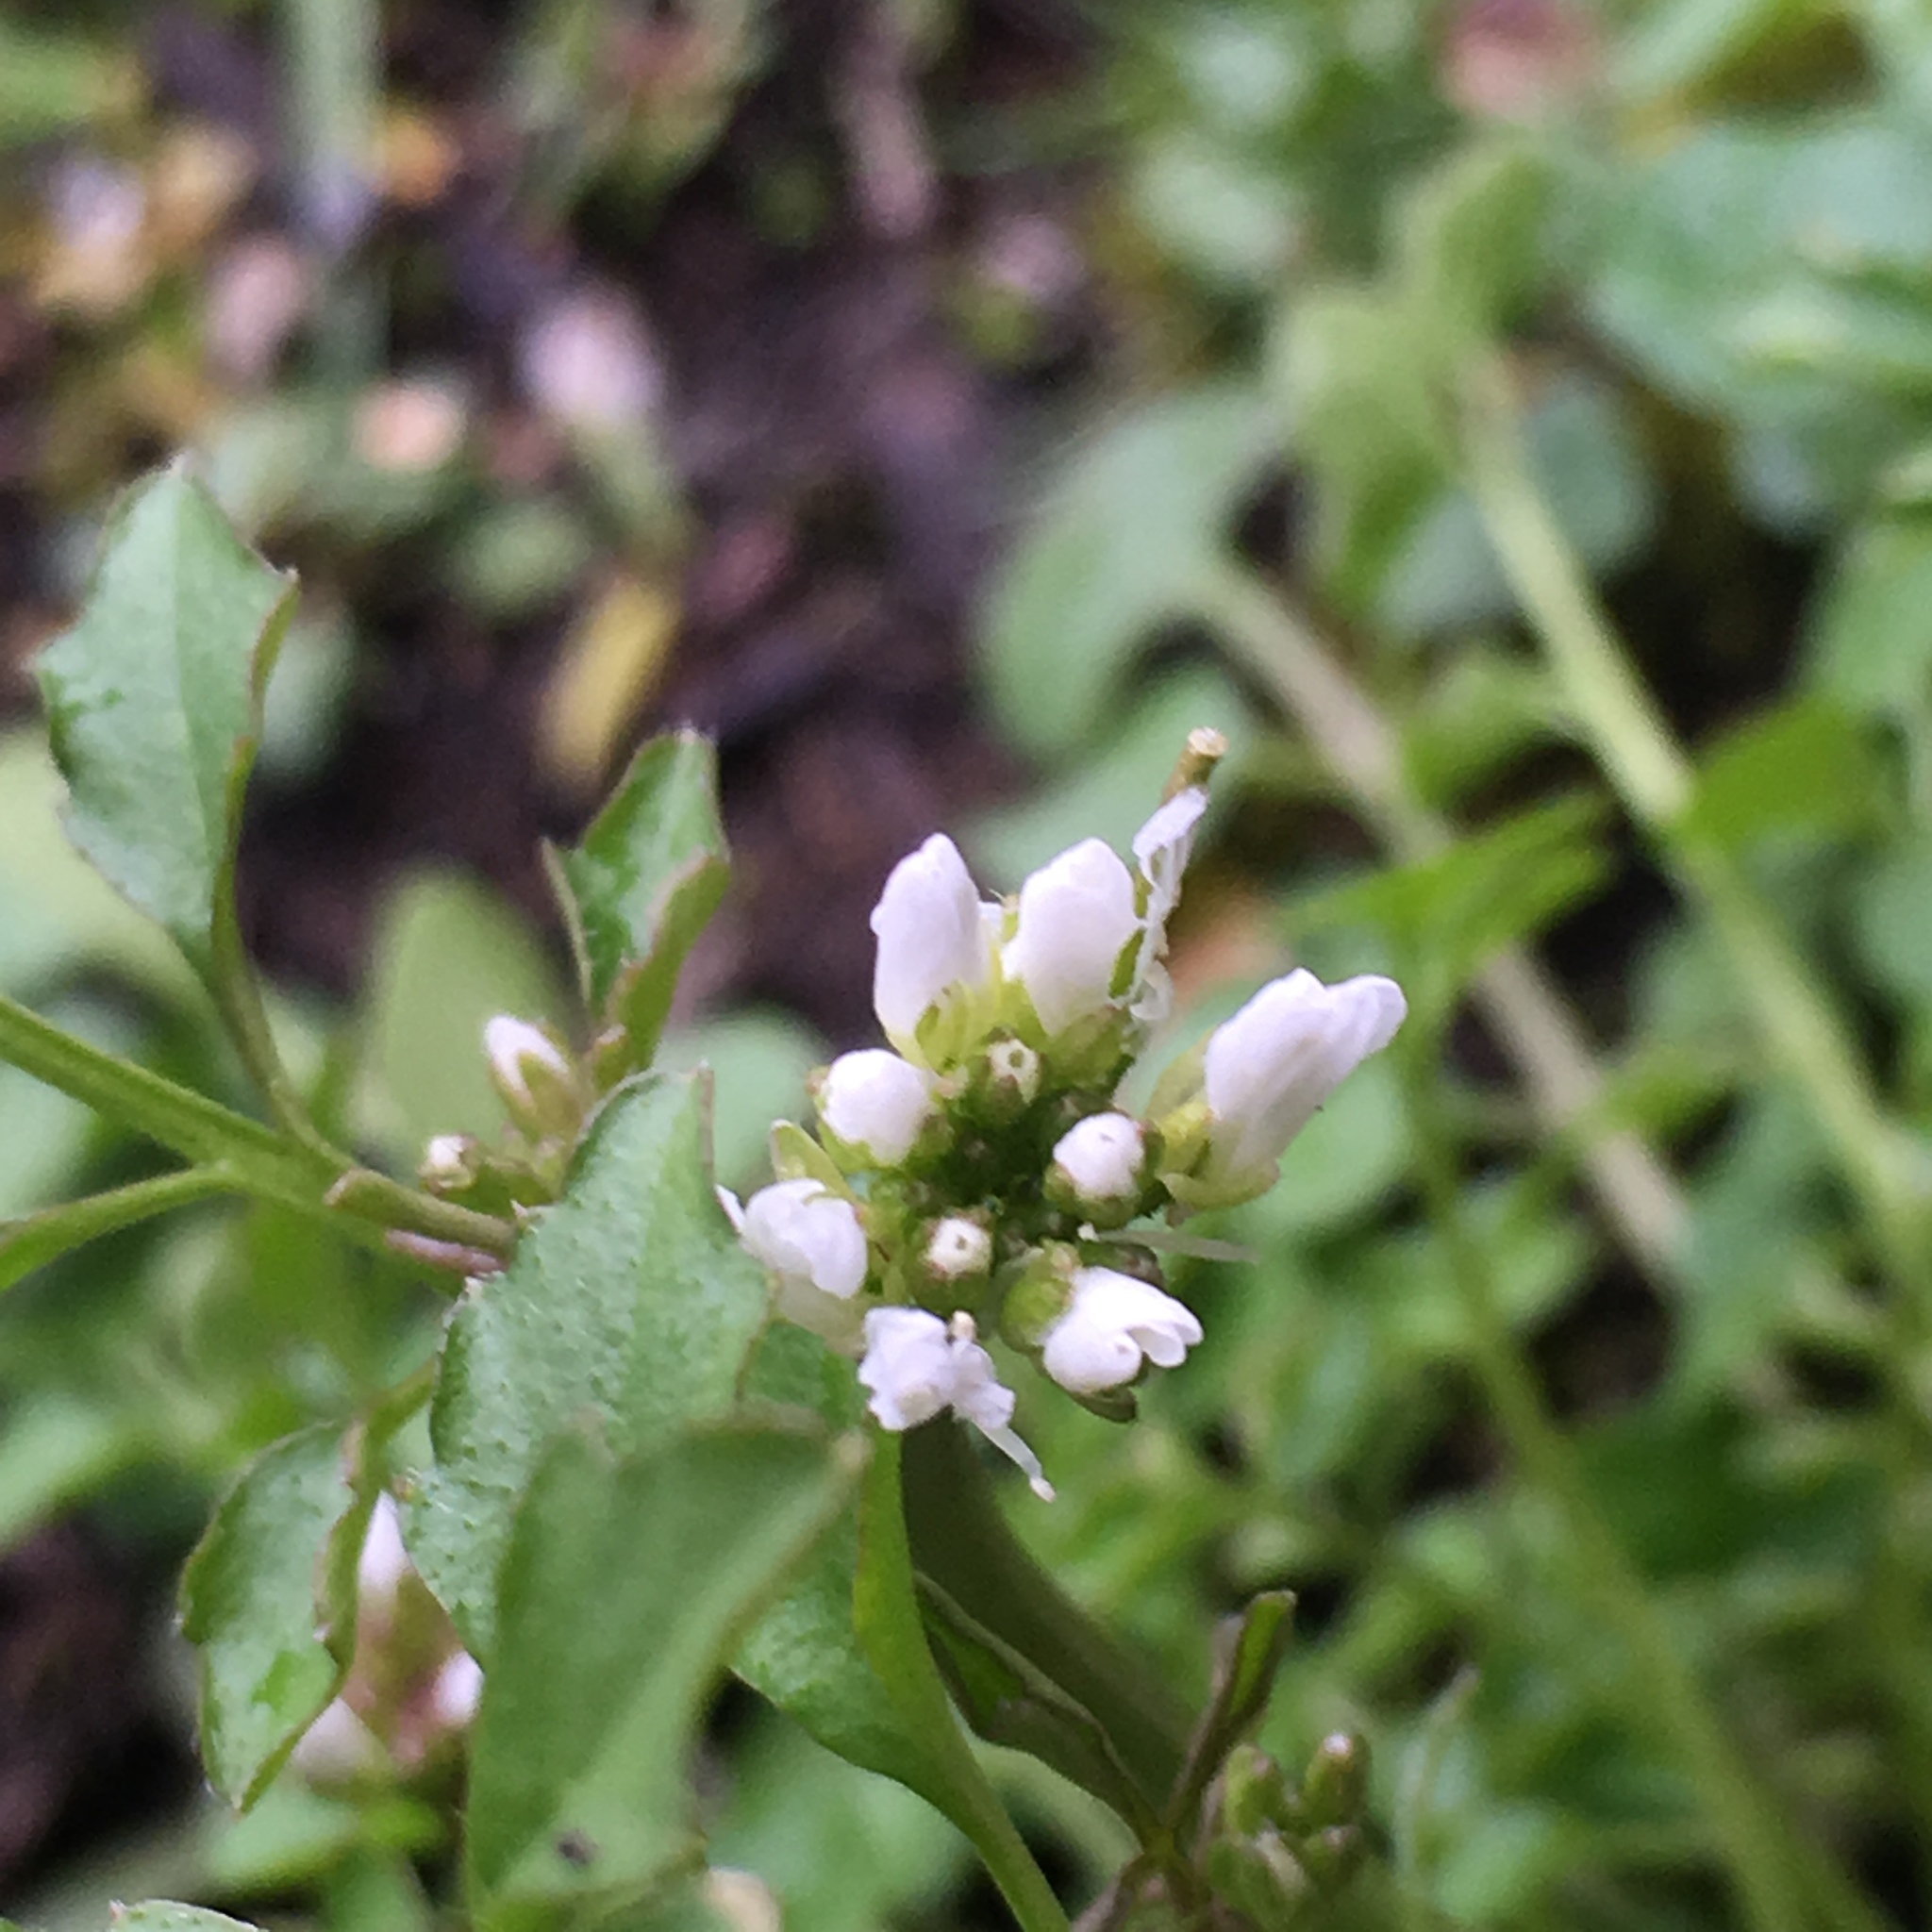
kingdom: Plantae
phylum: Tracheophyta
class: Magnoliopsida
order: Brassicales
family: Brassicaceae
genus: Cardamine
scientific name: Cardamine hirsuta
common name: Hairy bittercress
